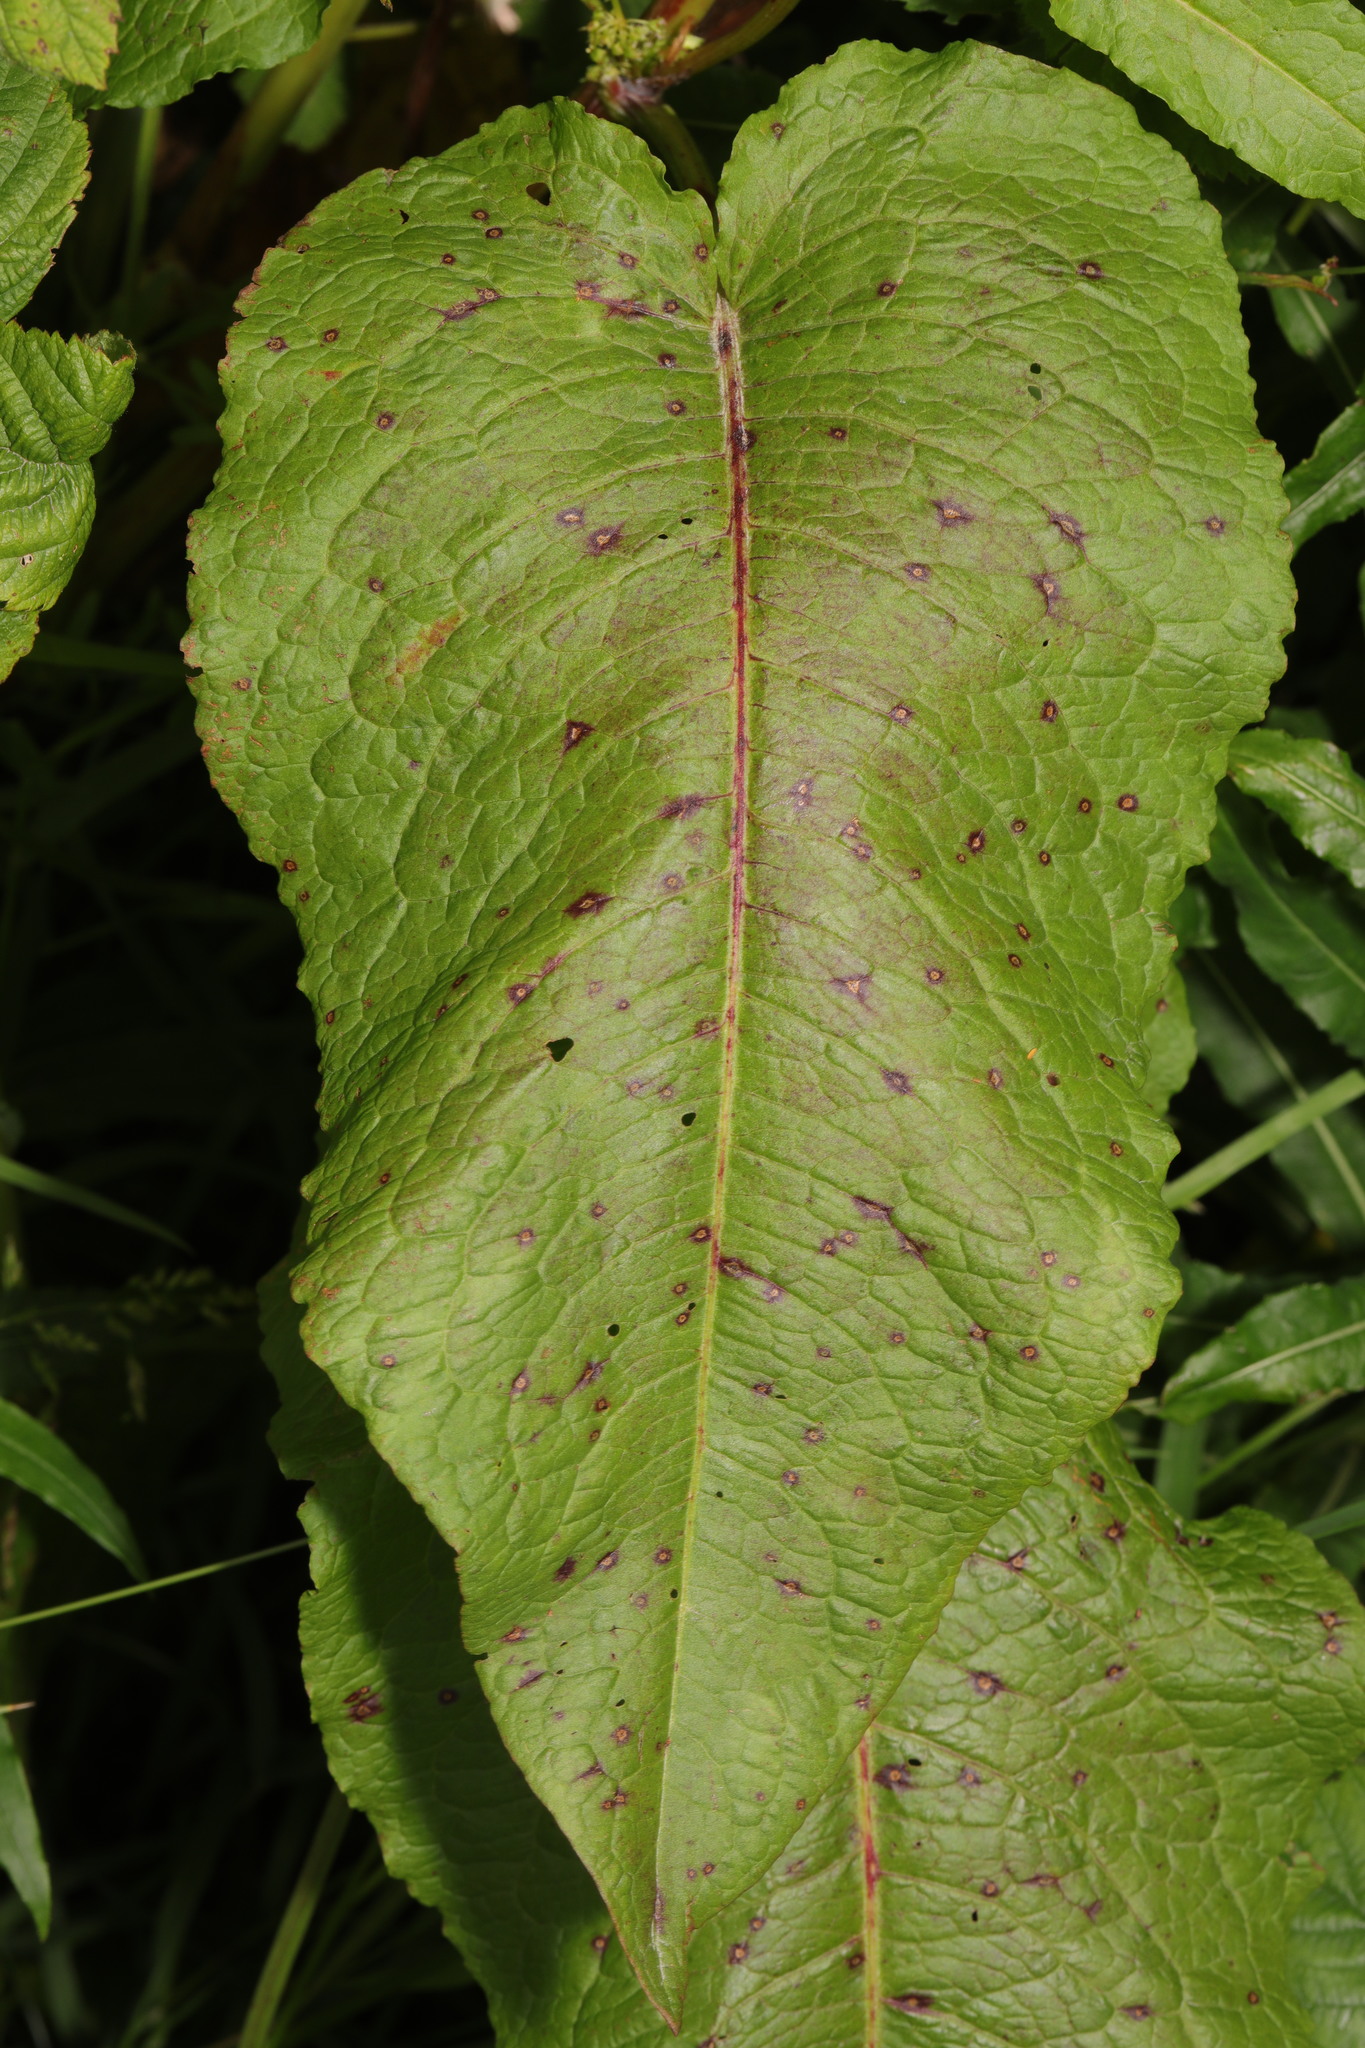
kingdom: Plantae
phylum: Tracheophyta
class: Magnoliopsida
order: Caryophyllales
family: Polygonaceae
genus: Rumex
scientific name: Rumex obtusifolius
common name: Bitter dock
